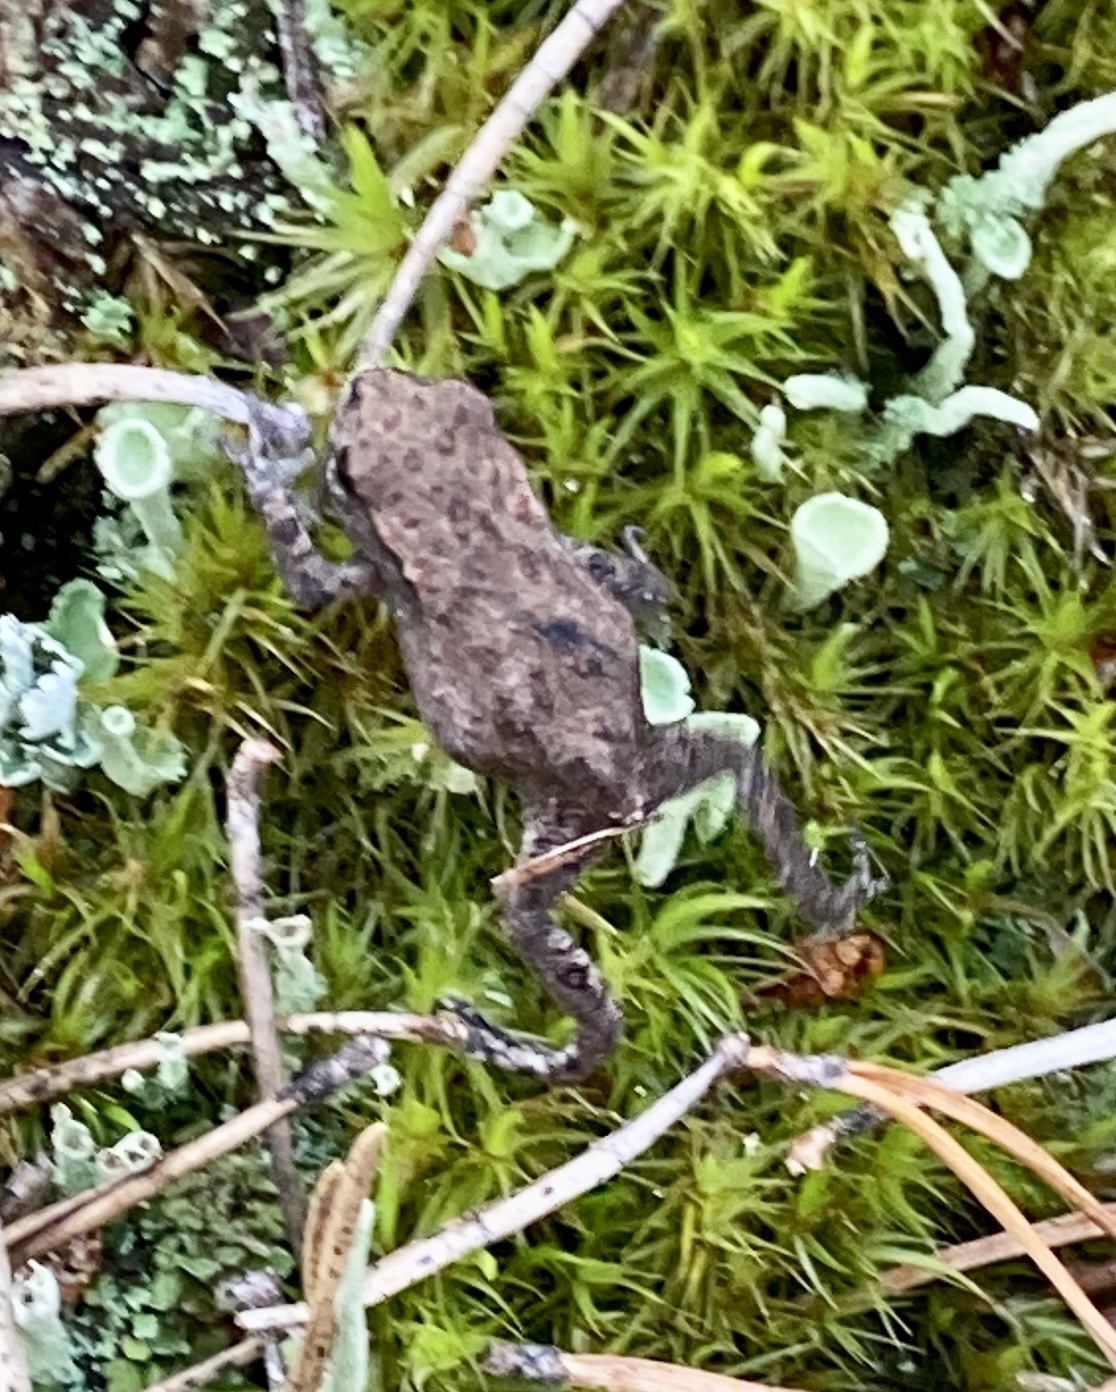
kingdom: Animalia
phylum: Chordata
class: Amphibia
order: Anura
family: Bufonidae
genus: Bufo
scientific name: Bufo bufo
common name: Common toad
